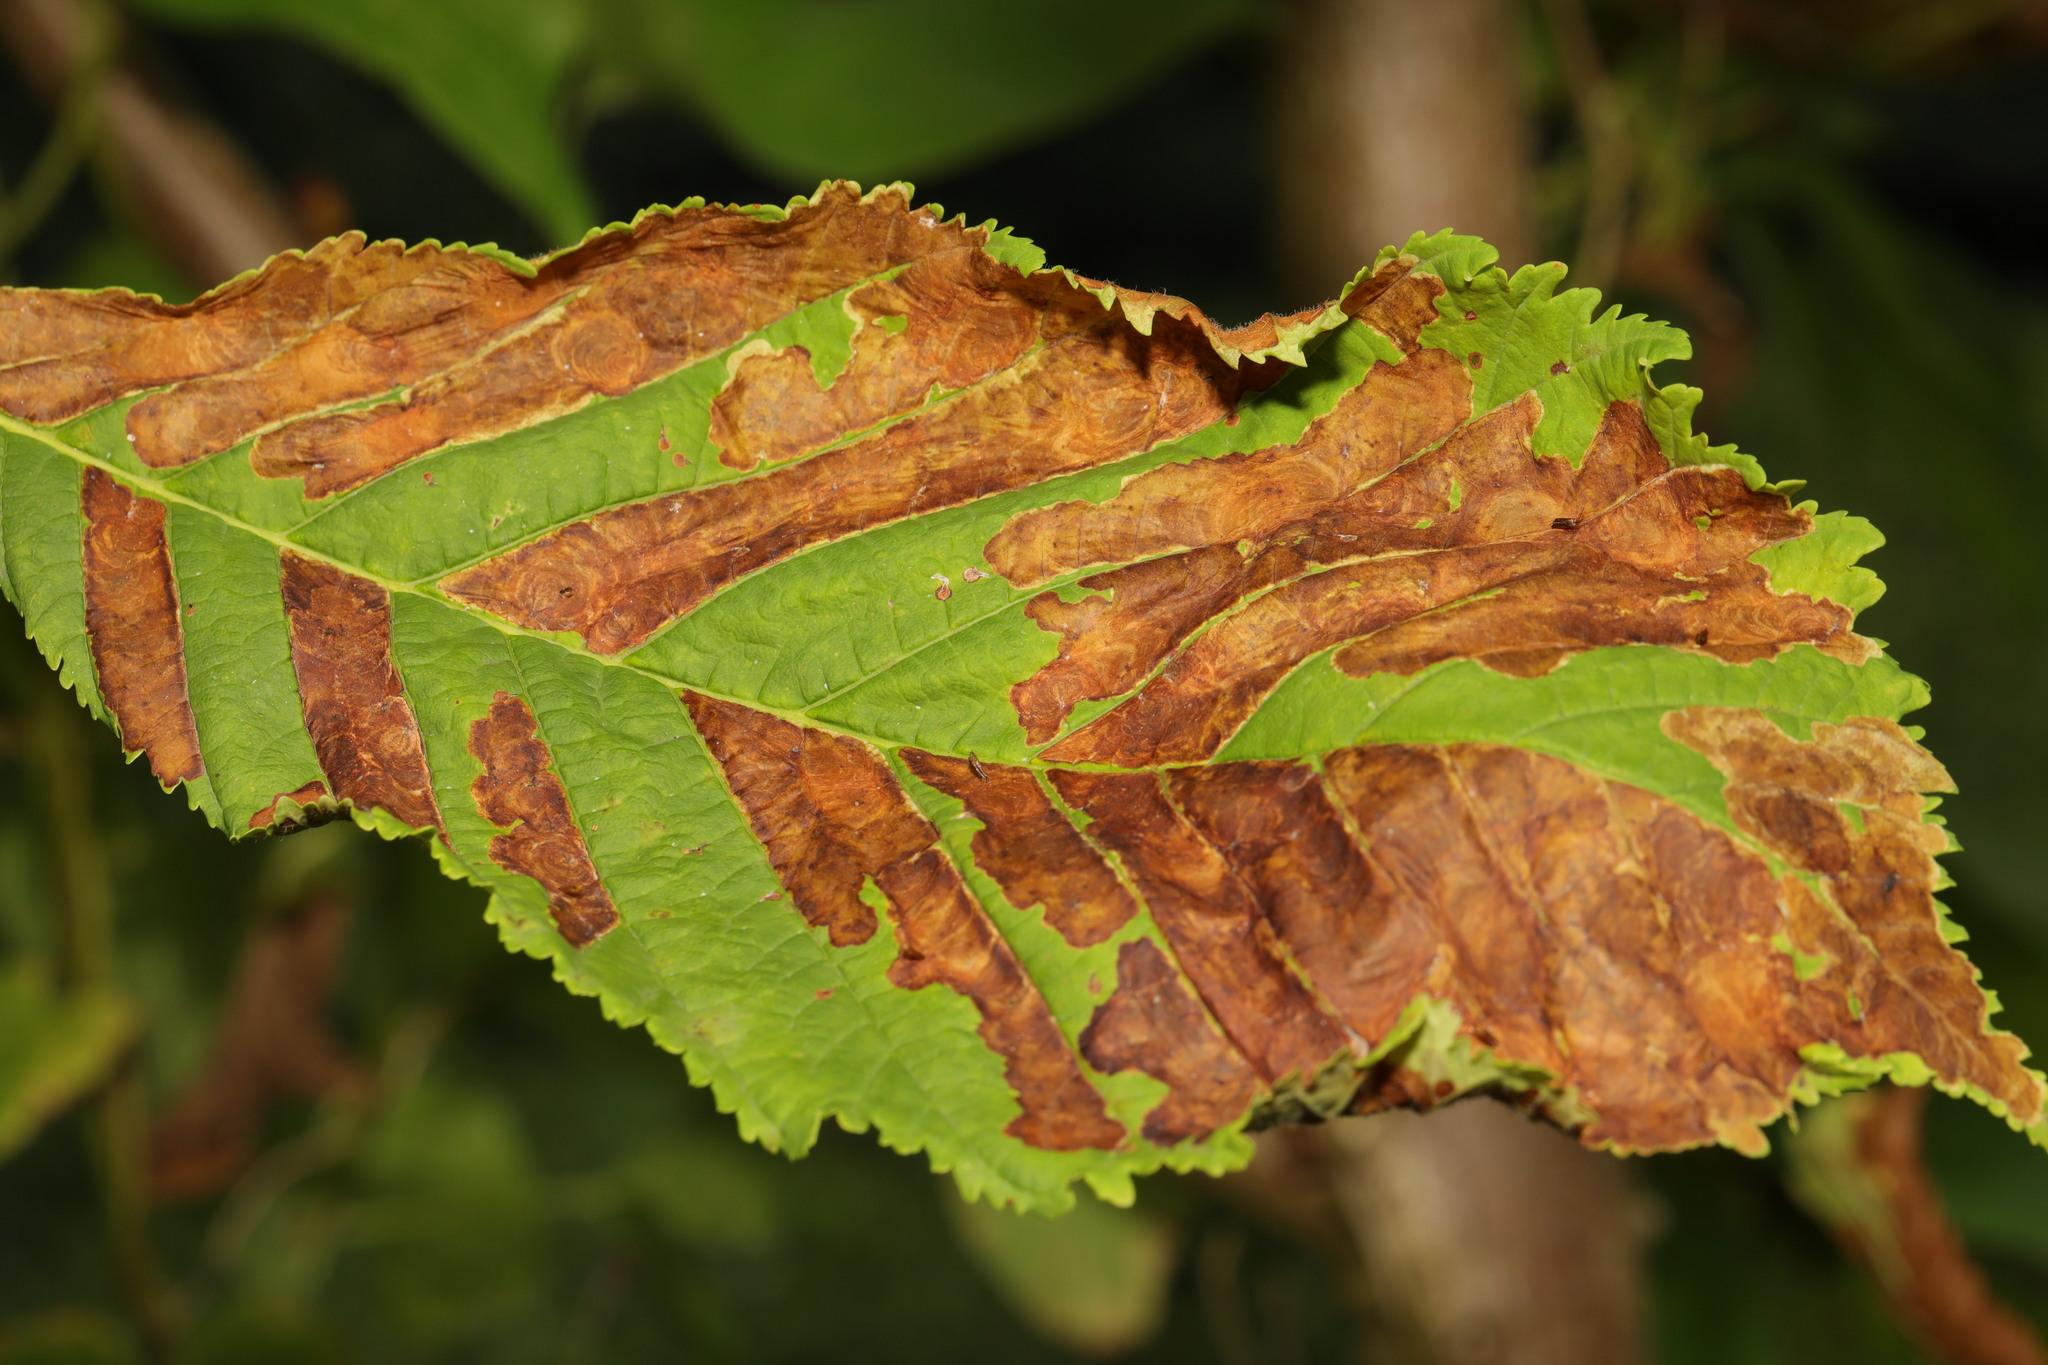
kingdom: Animalia
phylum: Arthropoda
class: Insecta
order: Lepidoptera
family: Gracillariidae
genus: Cameraria
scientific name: Cameraria ohridella
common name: Horse-chestnut leaf-miner
